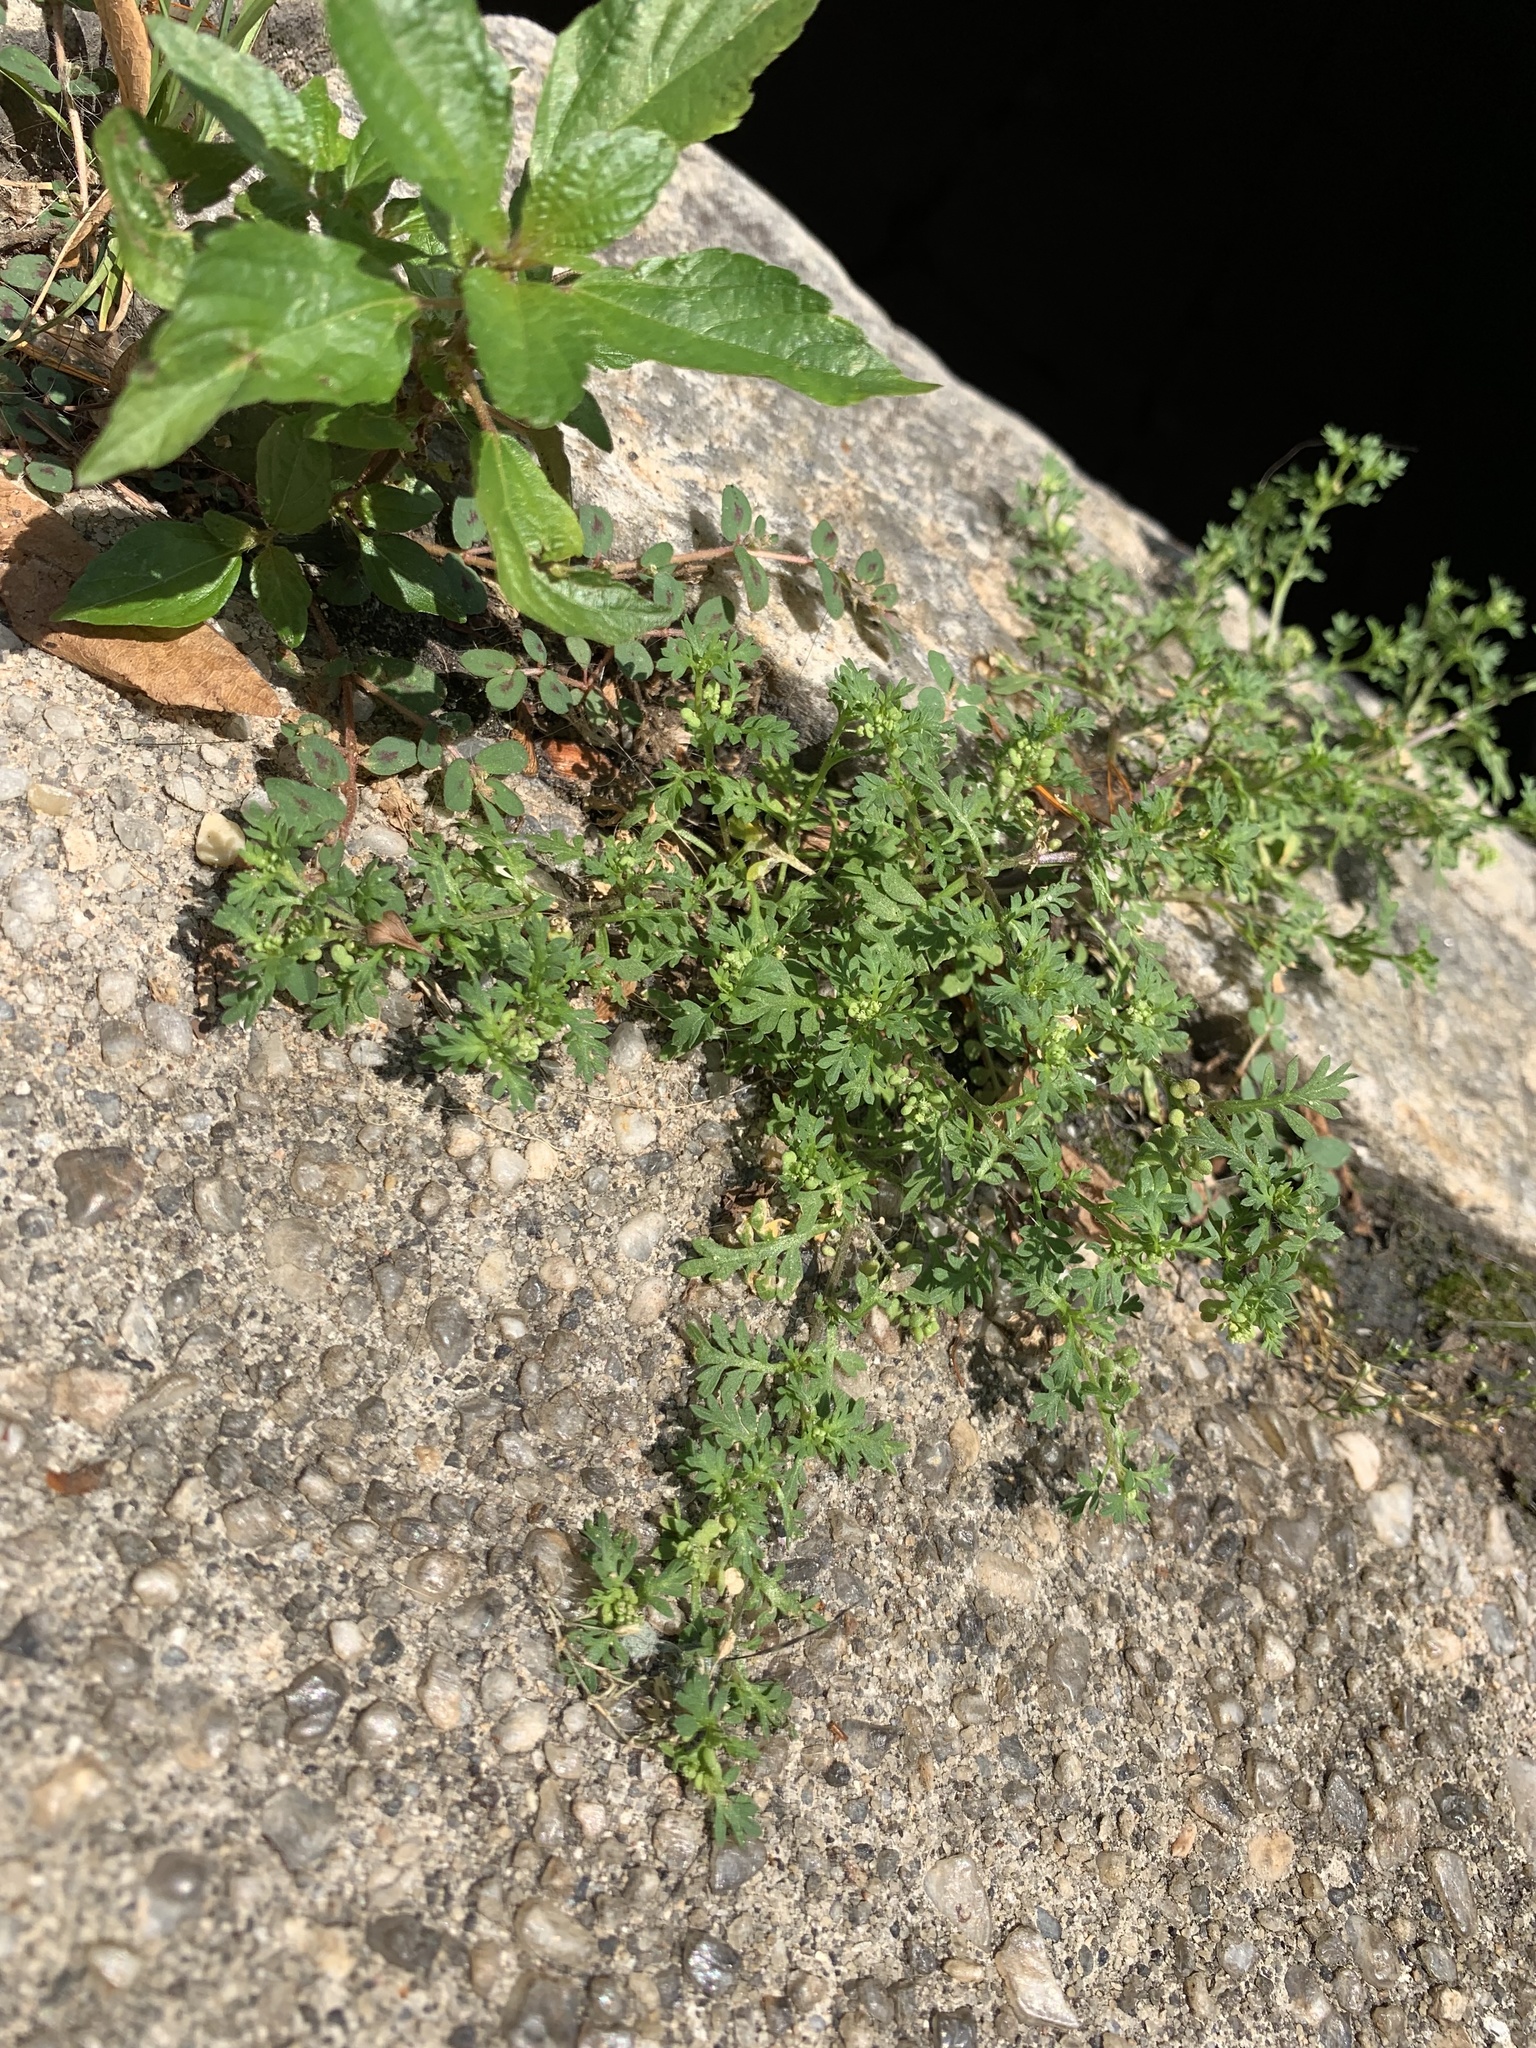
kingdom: Plantae
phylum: Tracheophyta
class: Magnoliopsida
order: Brassicales
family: Brassicaceae
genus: Lepidium
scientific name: Lepidium didymum
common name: Lesser swinecress
